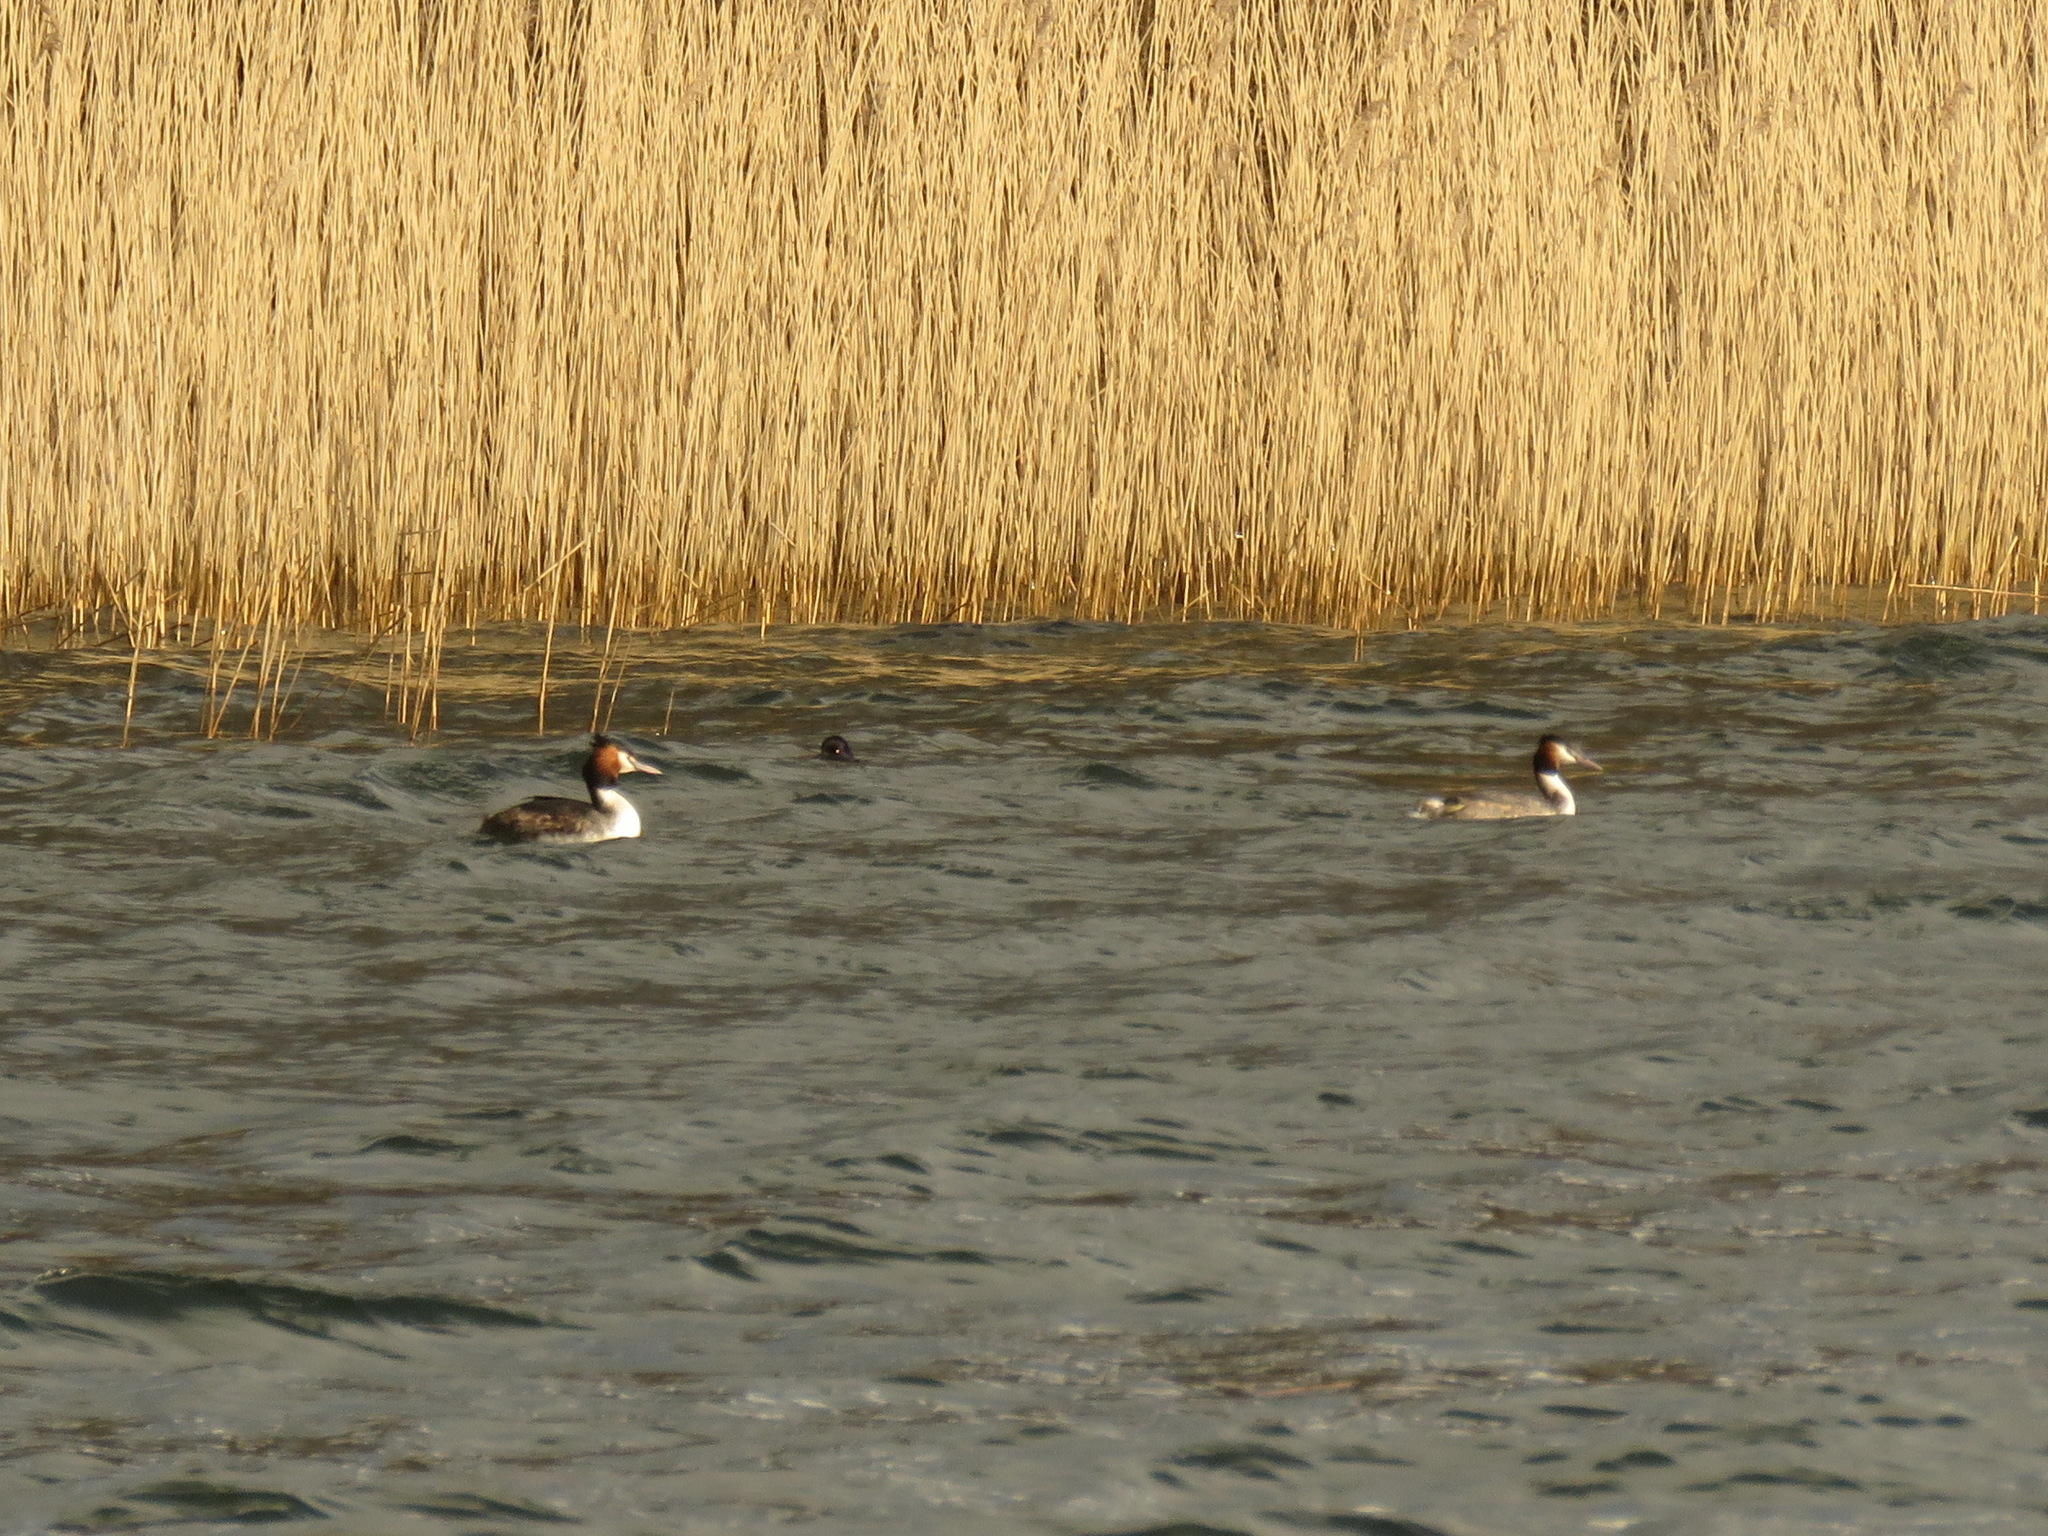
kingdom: Animalia
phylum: Chordata
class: Aves
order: Podicipediformes
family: Podicipedidae
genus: Podiceps
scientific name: Podiceps cristatus
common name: Great crested grebe
